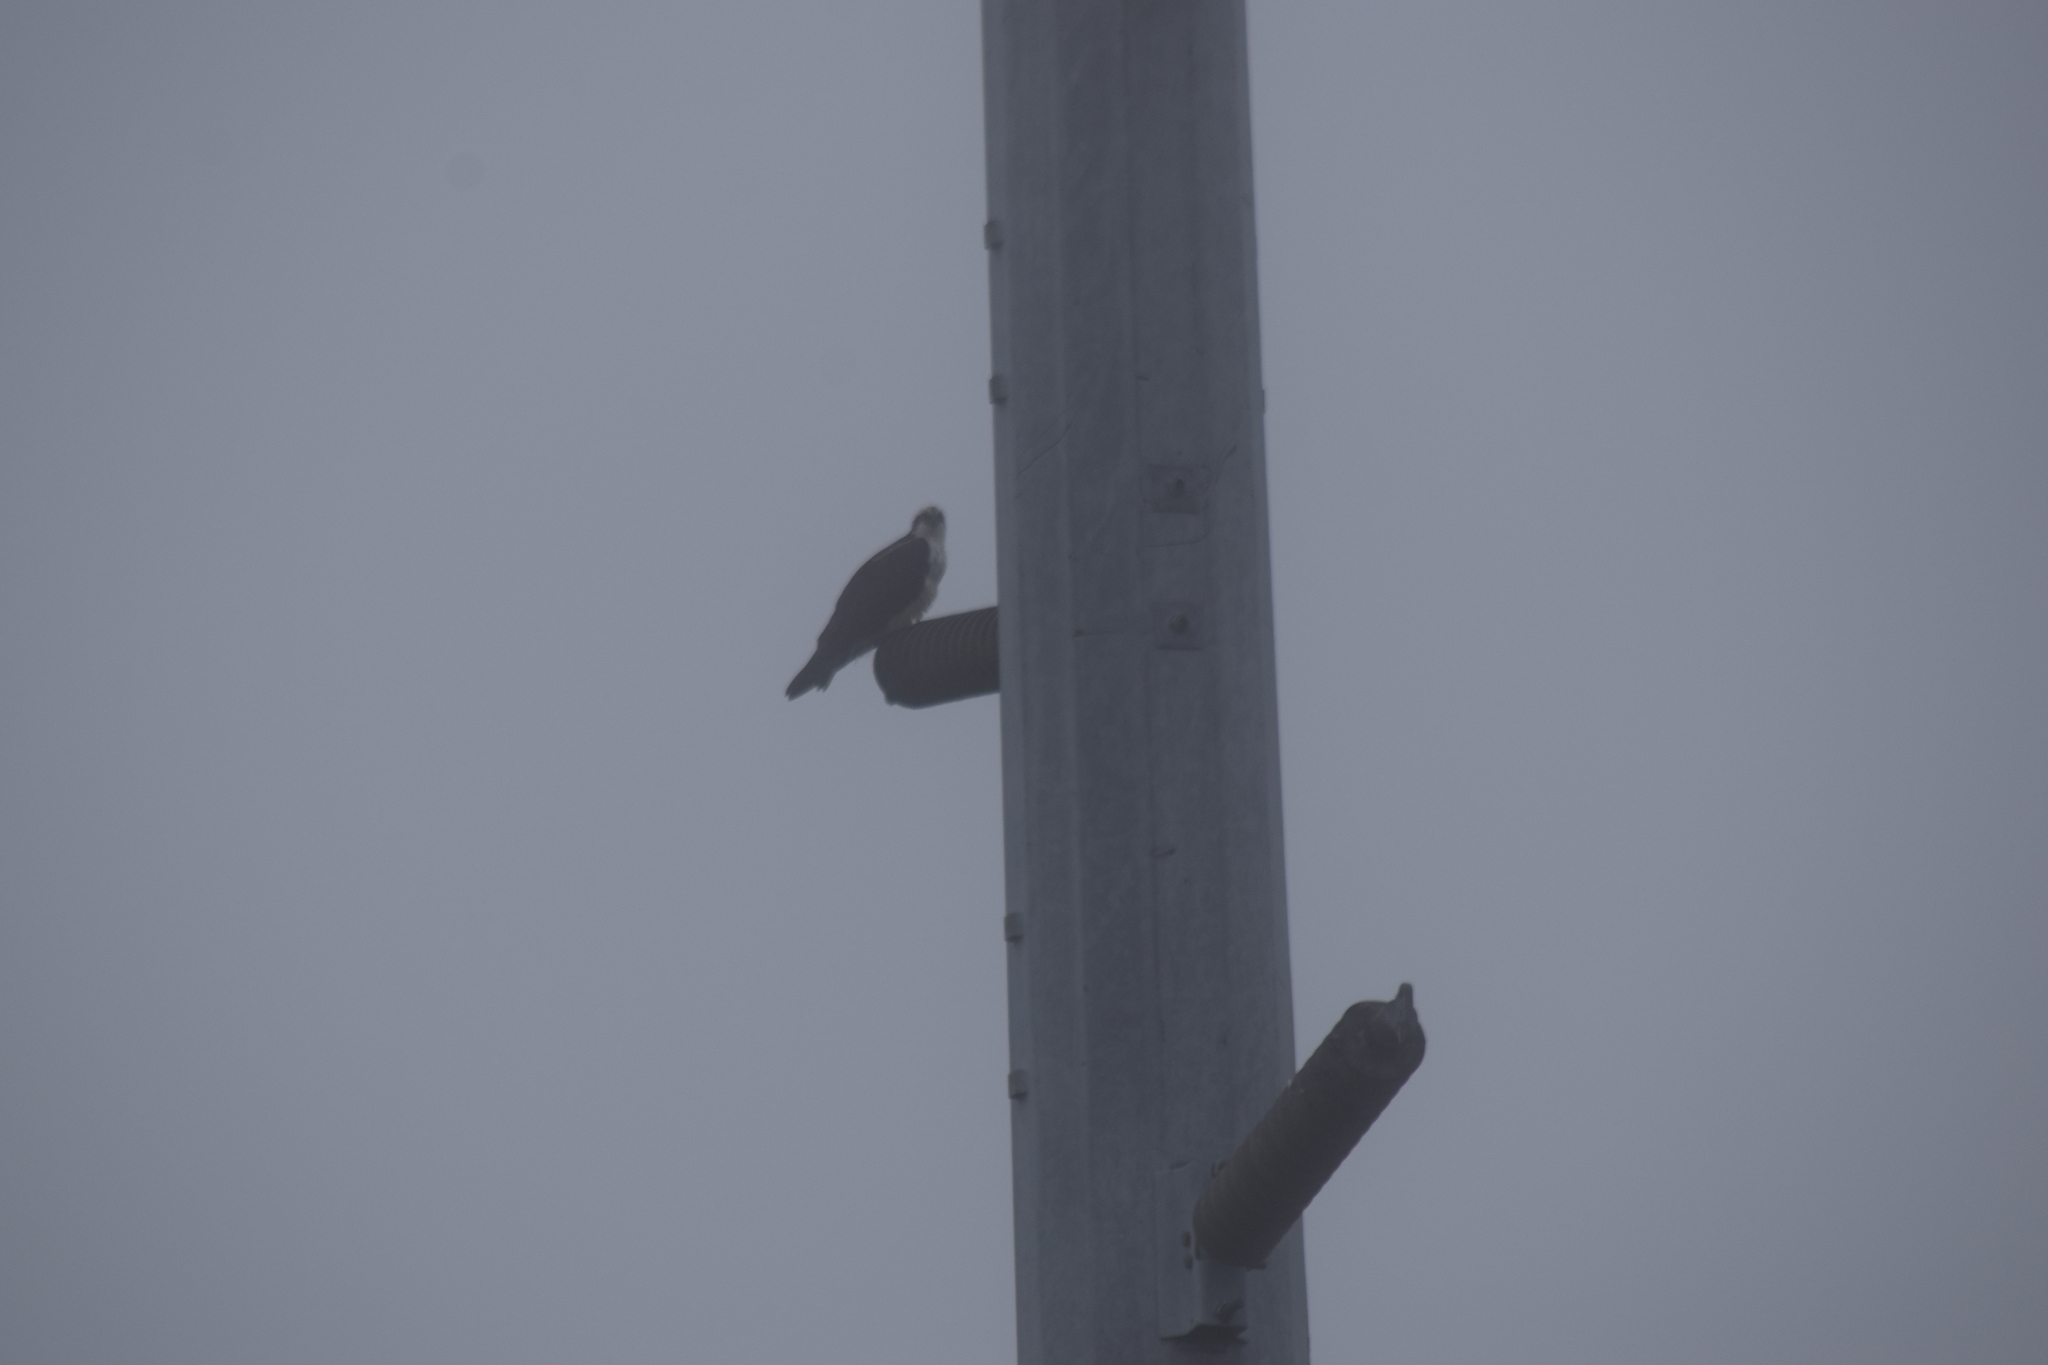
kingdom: Animalia
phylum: Chordata
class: Aves
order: Accipitriformes
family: Pandionidae
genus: Pandion
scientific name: Pandion haliaetus
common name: Osprey
